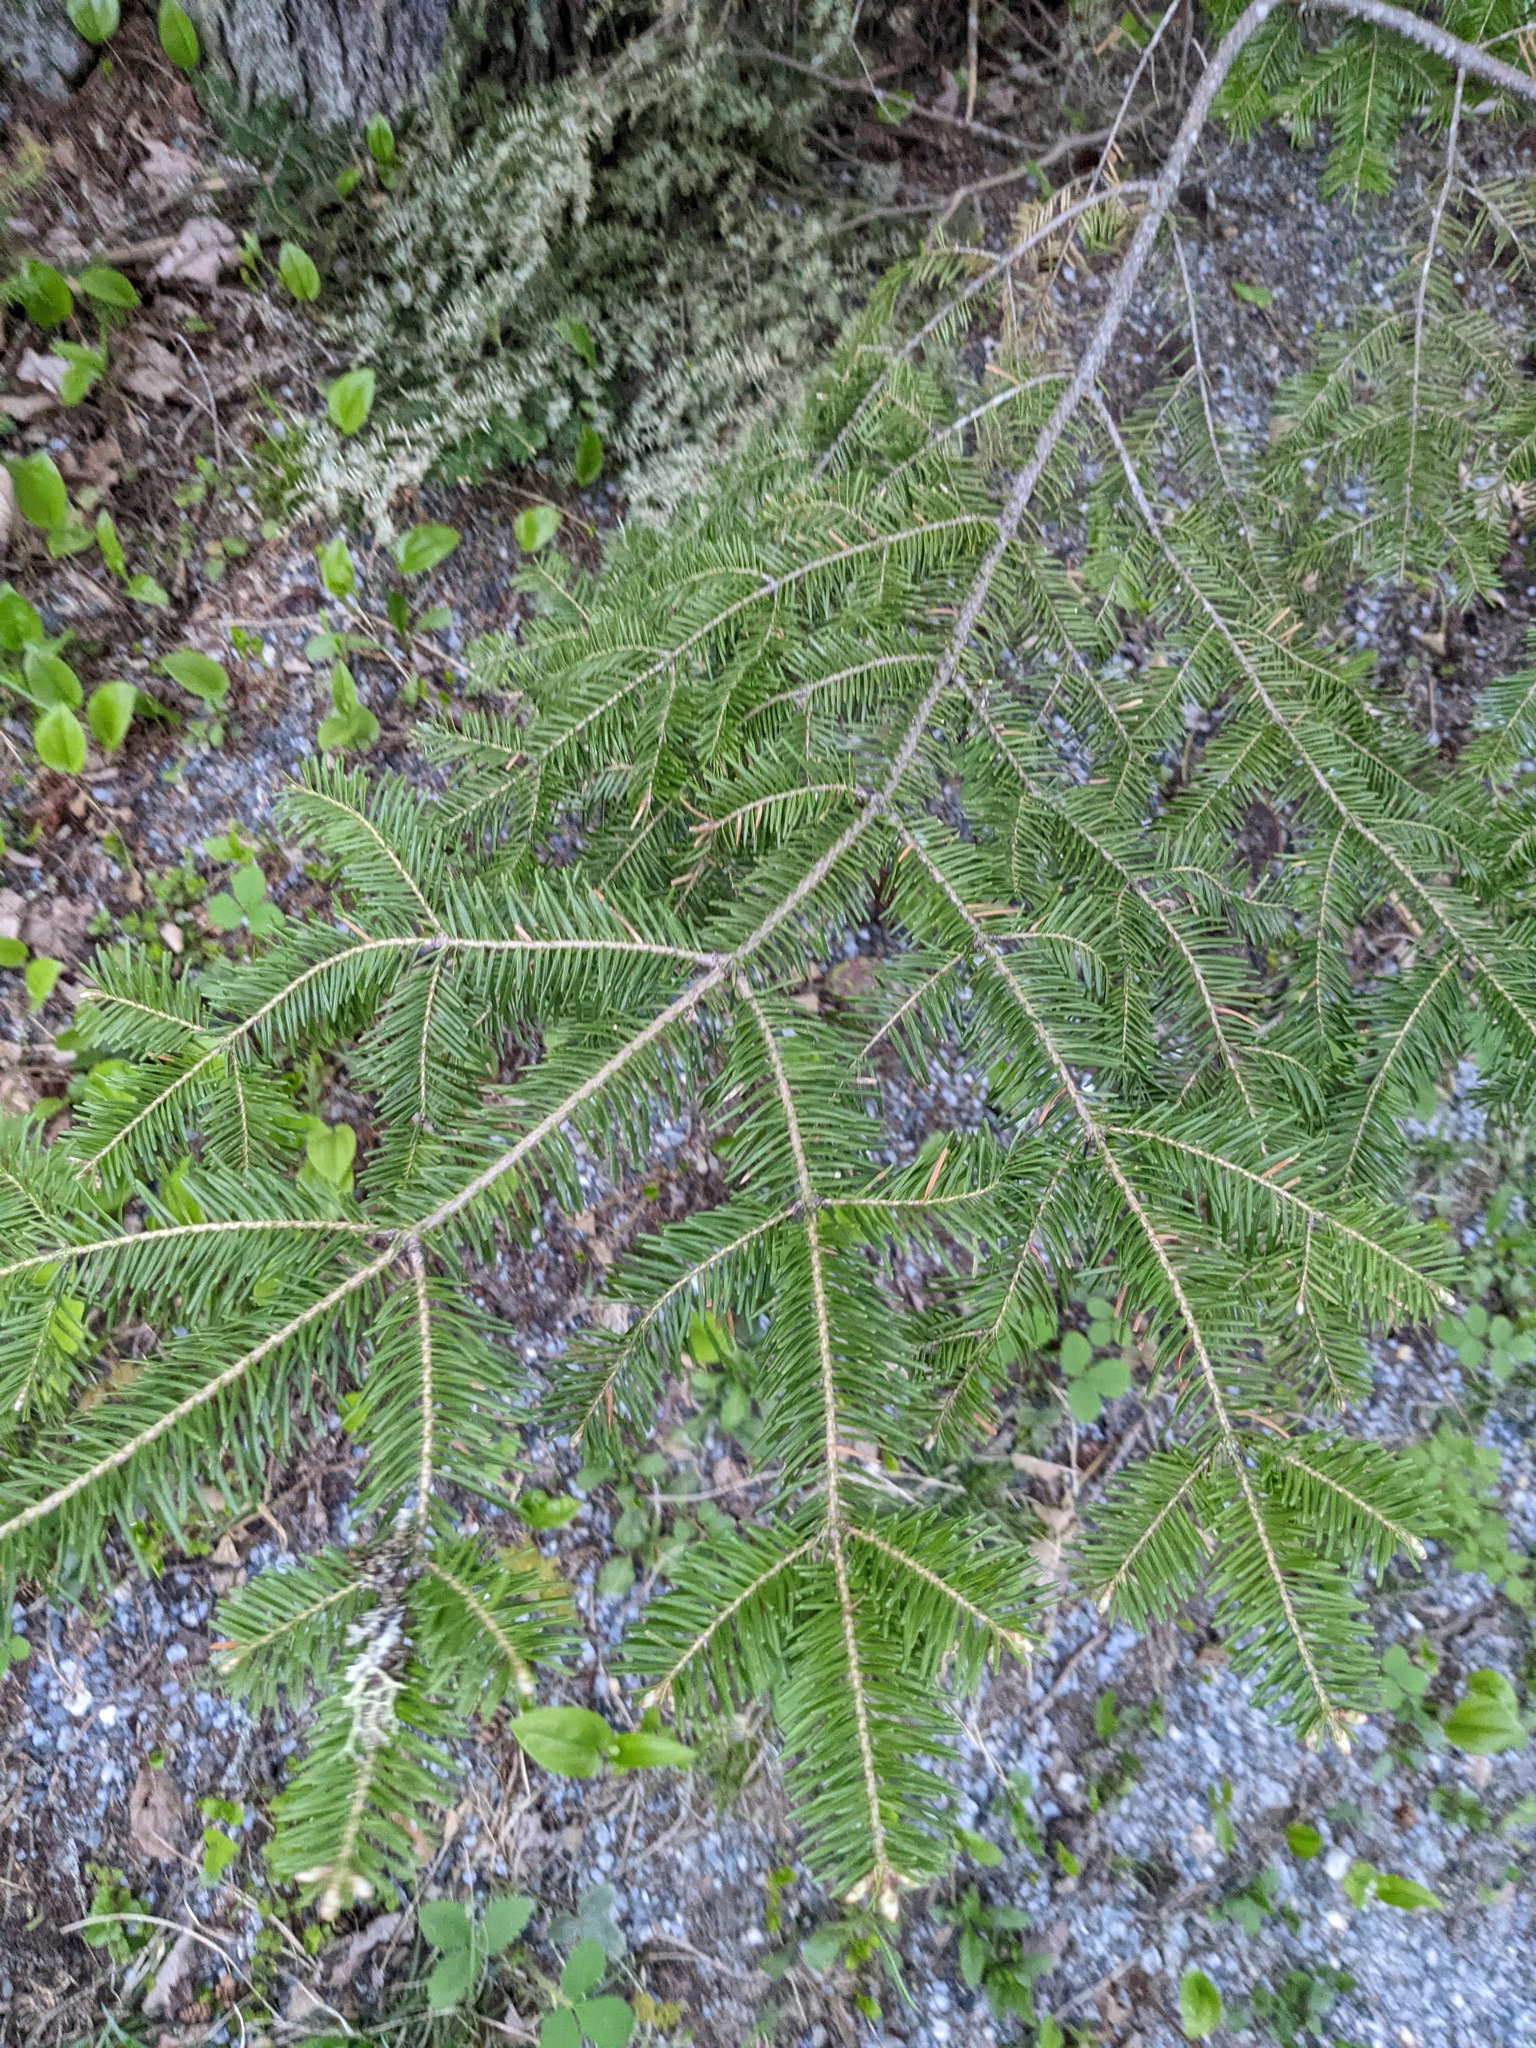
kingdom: Plantae
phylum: Tracheophyta
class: Pinopsida
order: Pinales
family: Pinaceae
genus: Abies
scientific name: Abies balsamea
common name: Balsam fir
